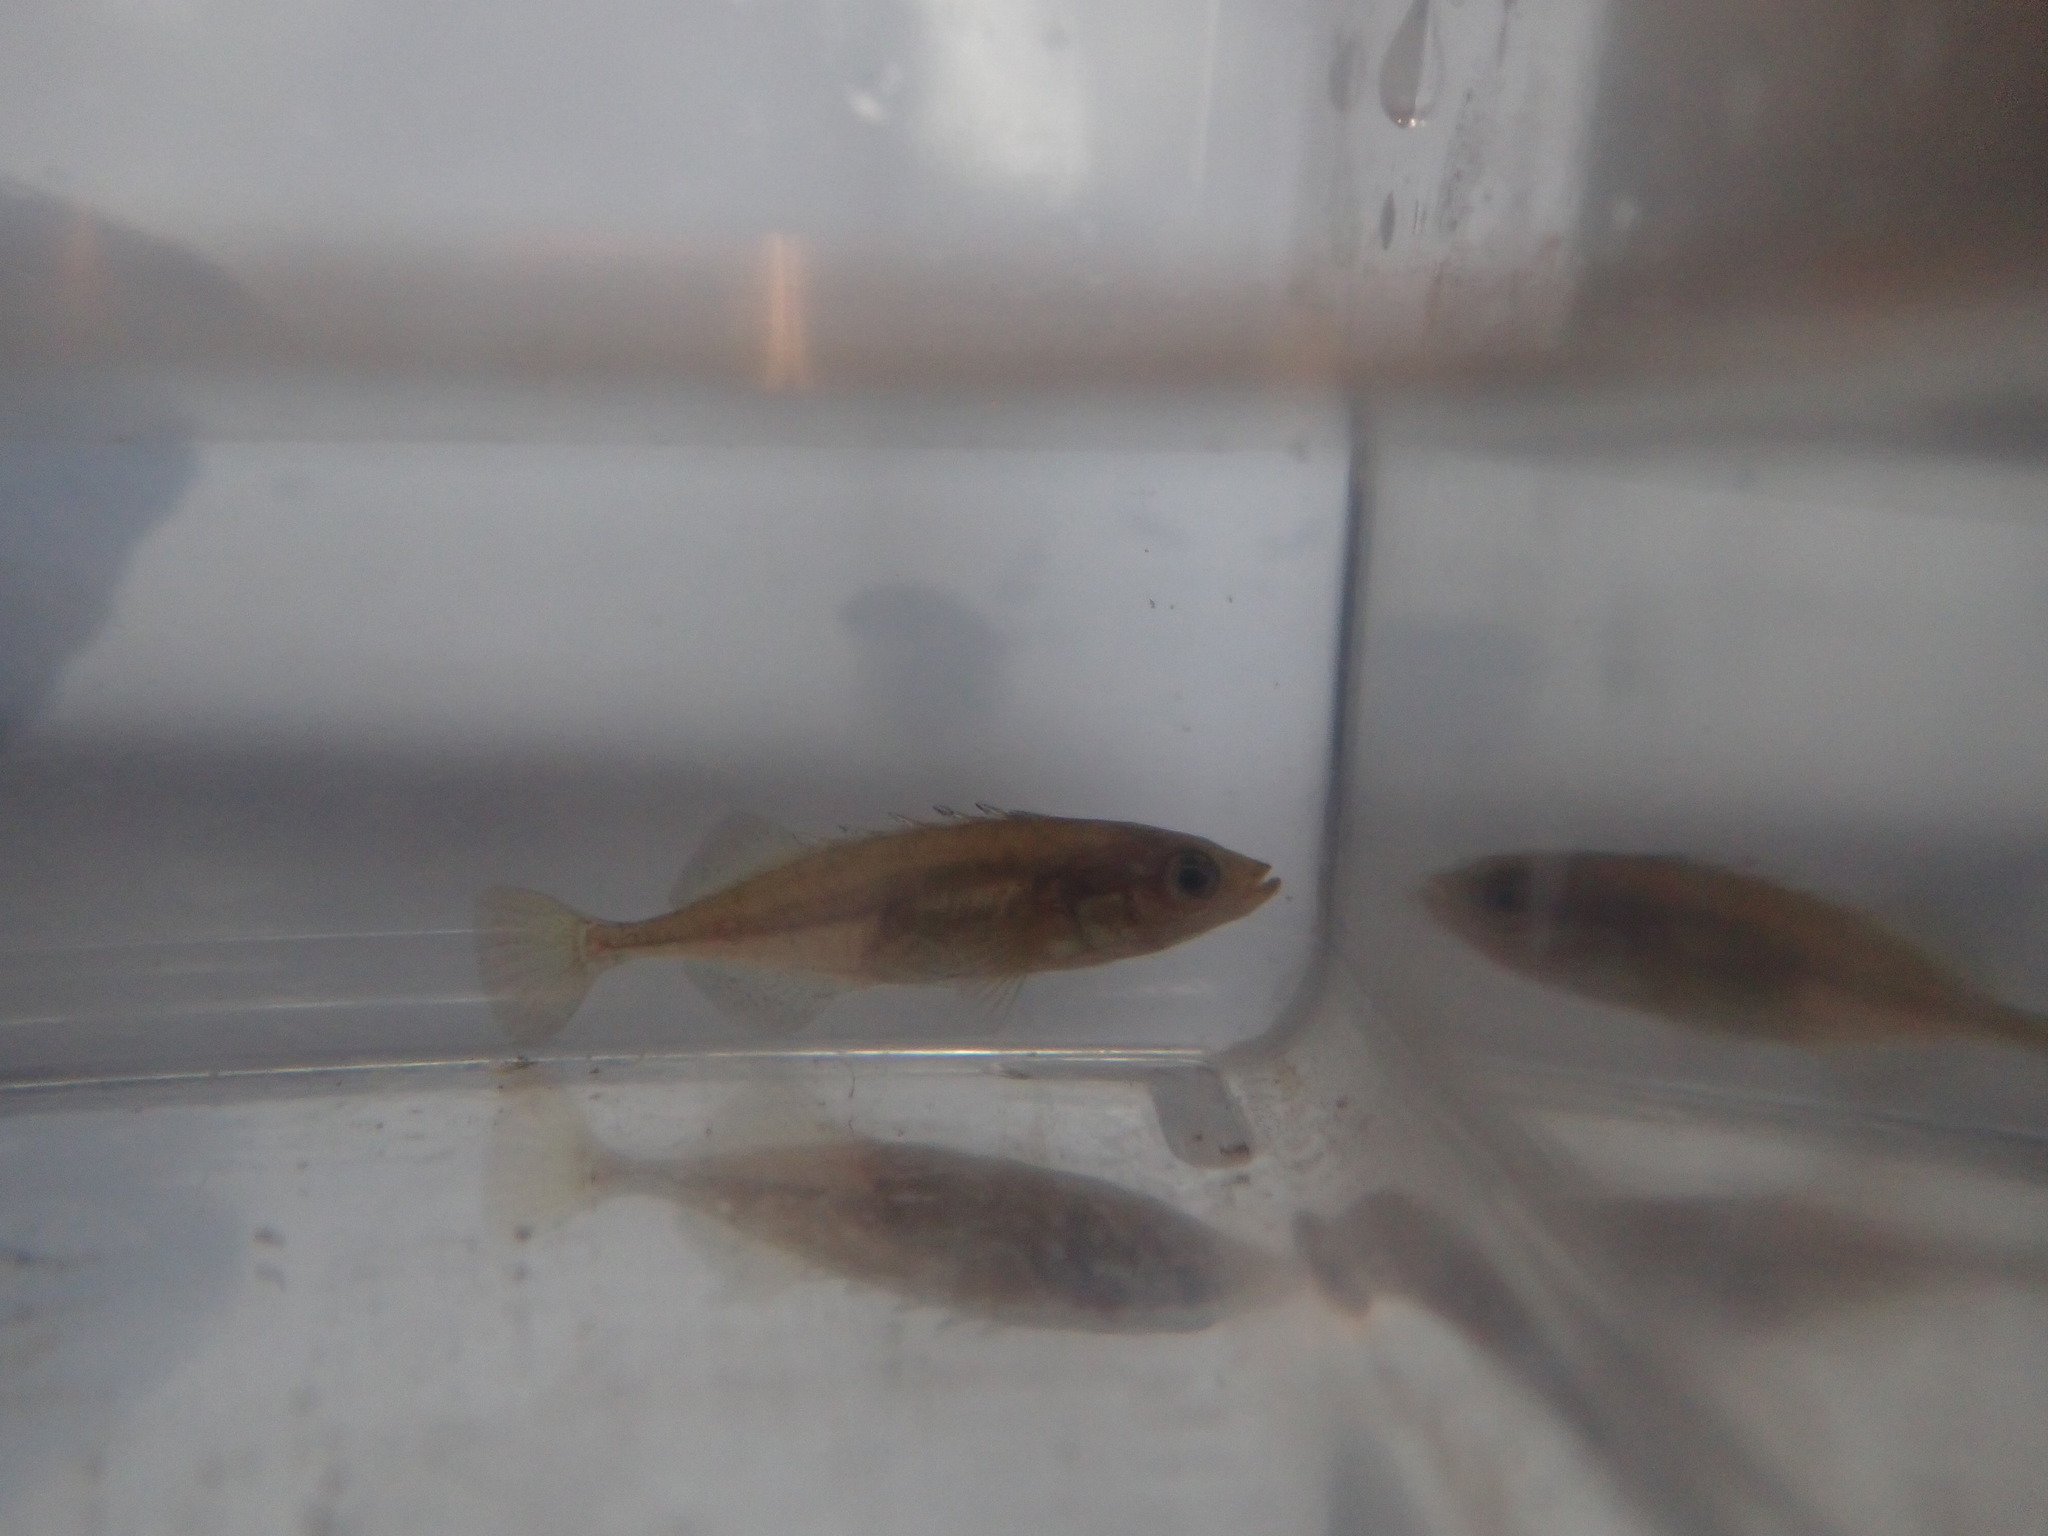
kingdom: Animalia
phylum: Chordata
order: Gasterosteiformes
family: Gasterosteidae
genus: Culaea
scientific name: Culaea inconstans
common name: Brook stickleback
